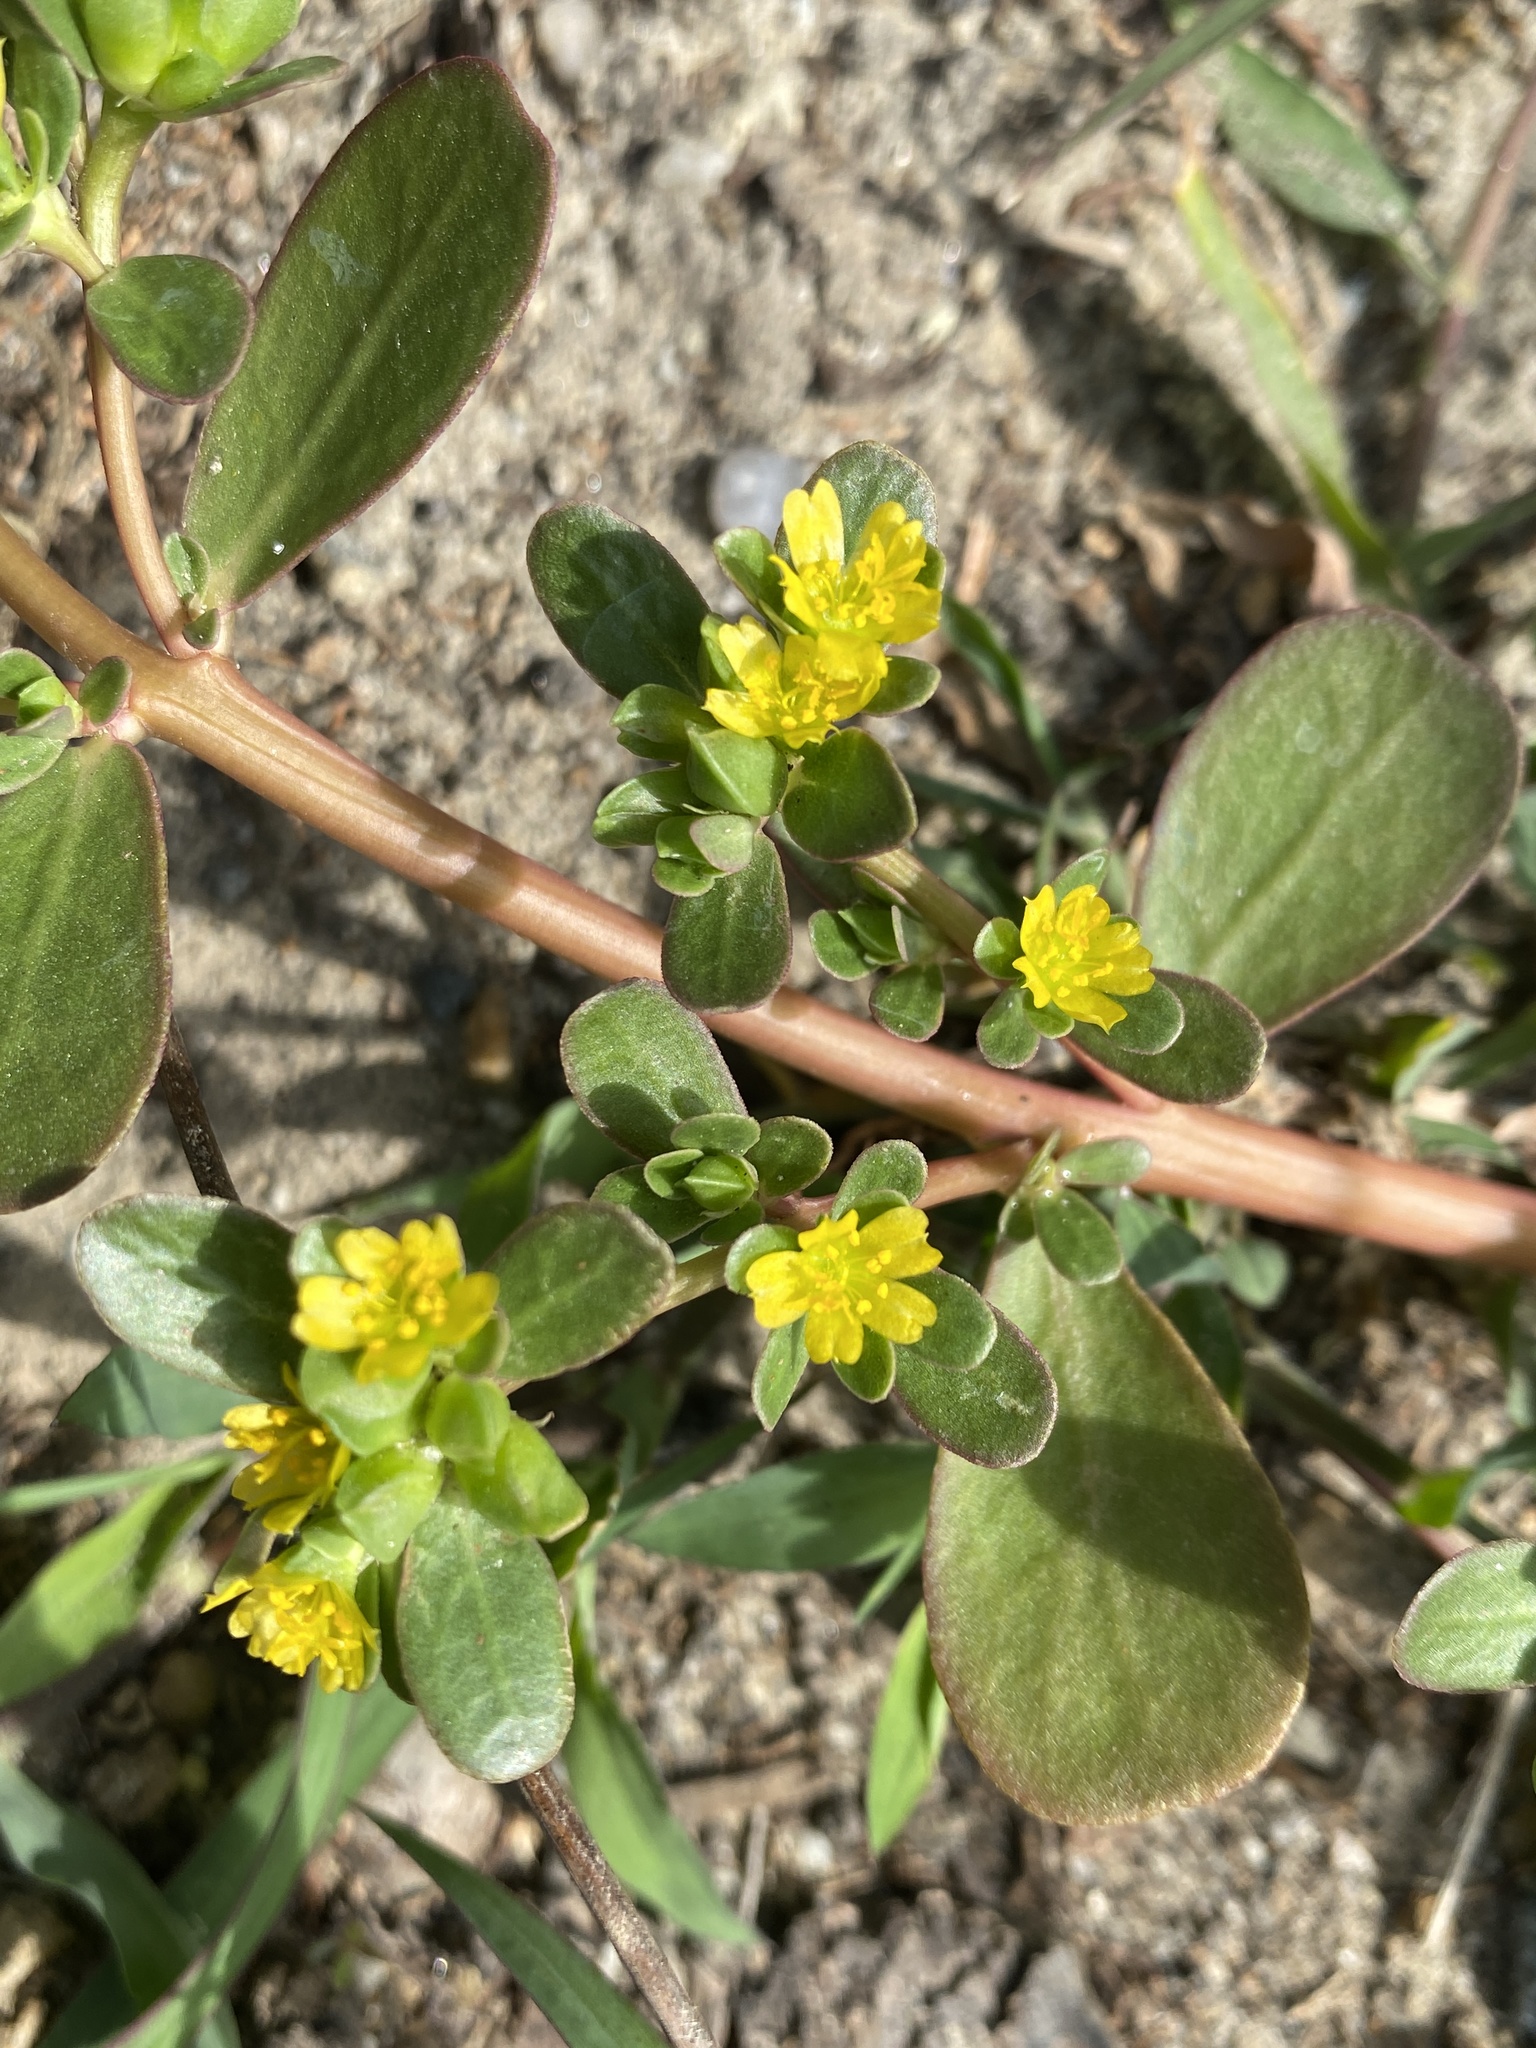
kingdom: Plantae
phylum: Tracheophyta
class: Magnoliopsida
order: Caryophyllales
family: Portulacaceae
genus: Portulaca
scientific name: Portulaca oleracea
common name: Common purslane
